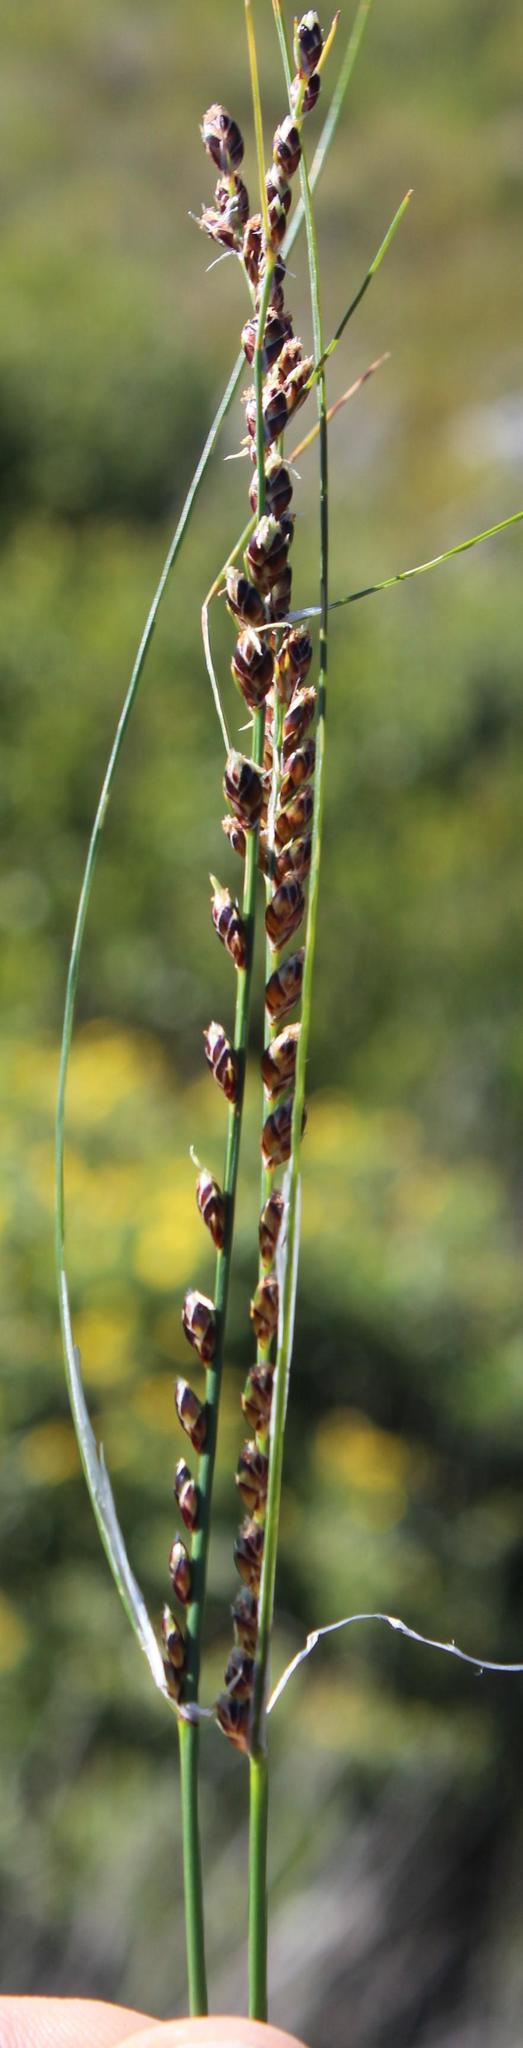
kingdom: Plantae
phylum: Tracheophyta
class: Liliopsida
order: Poales
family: Cyperaceae
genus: Ficinia
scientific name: Ficinia secunda
